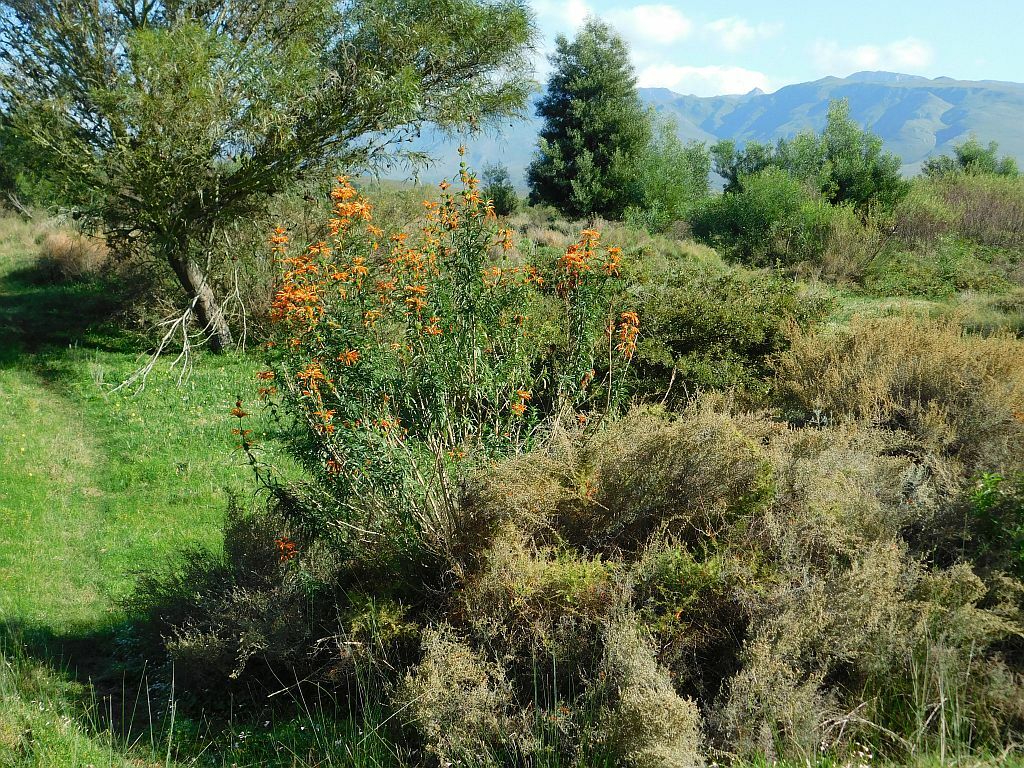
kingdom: Plantae
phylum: Tracheophyta
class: Magnoliopsida
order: Lamiales
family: Lamiaceae
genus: Leonotis
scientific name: Leonotis leonurus
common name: Lion's ear
